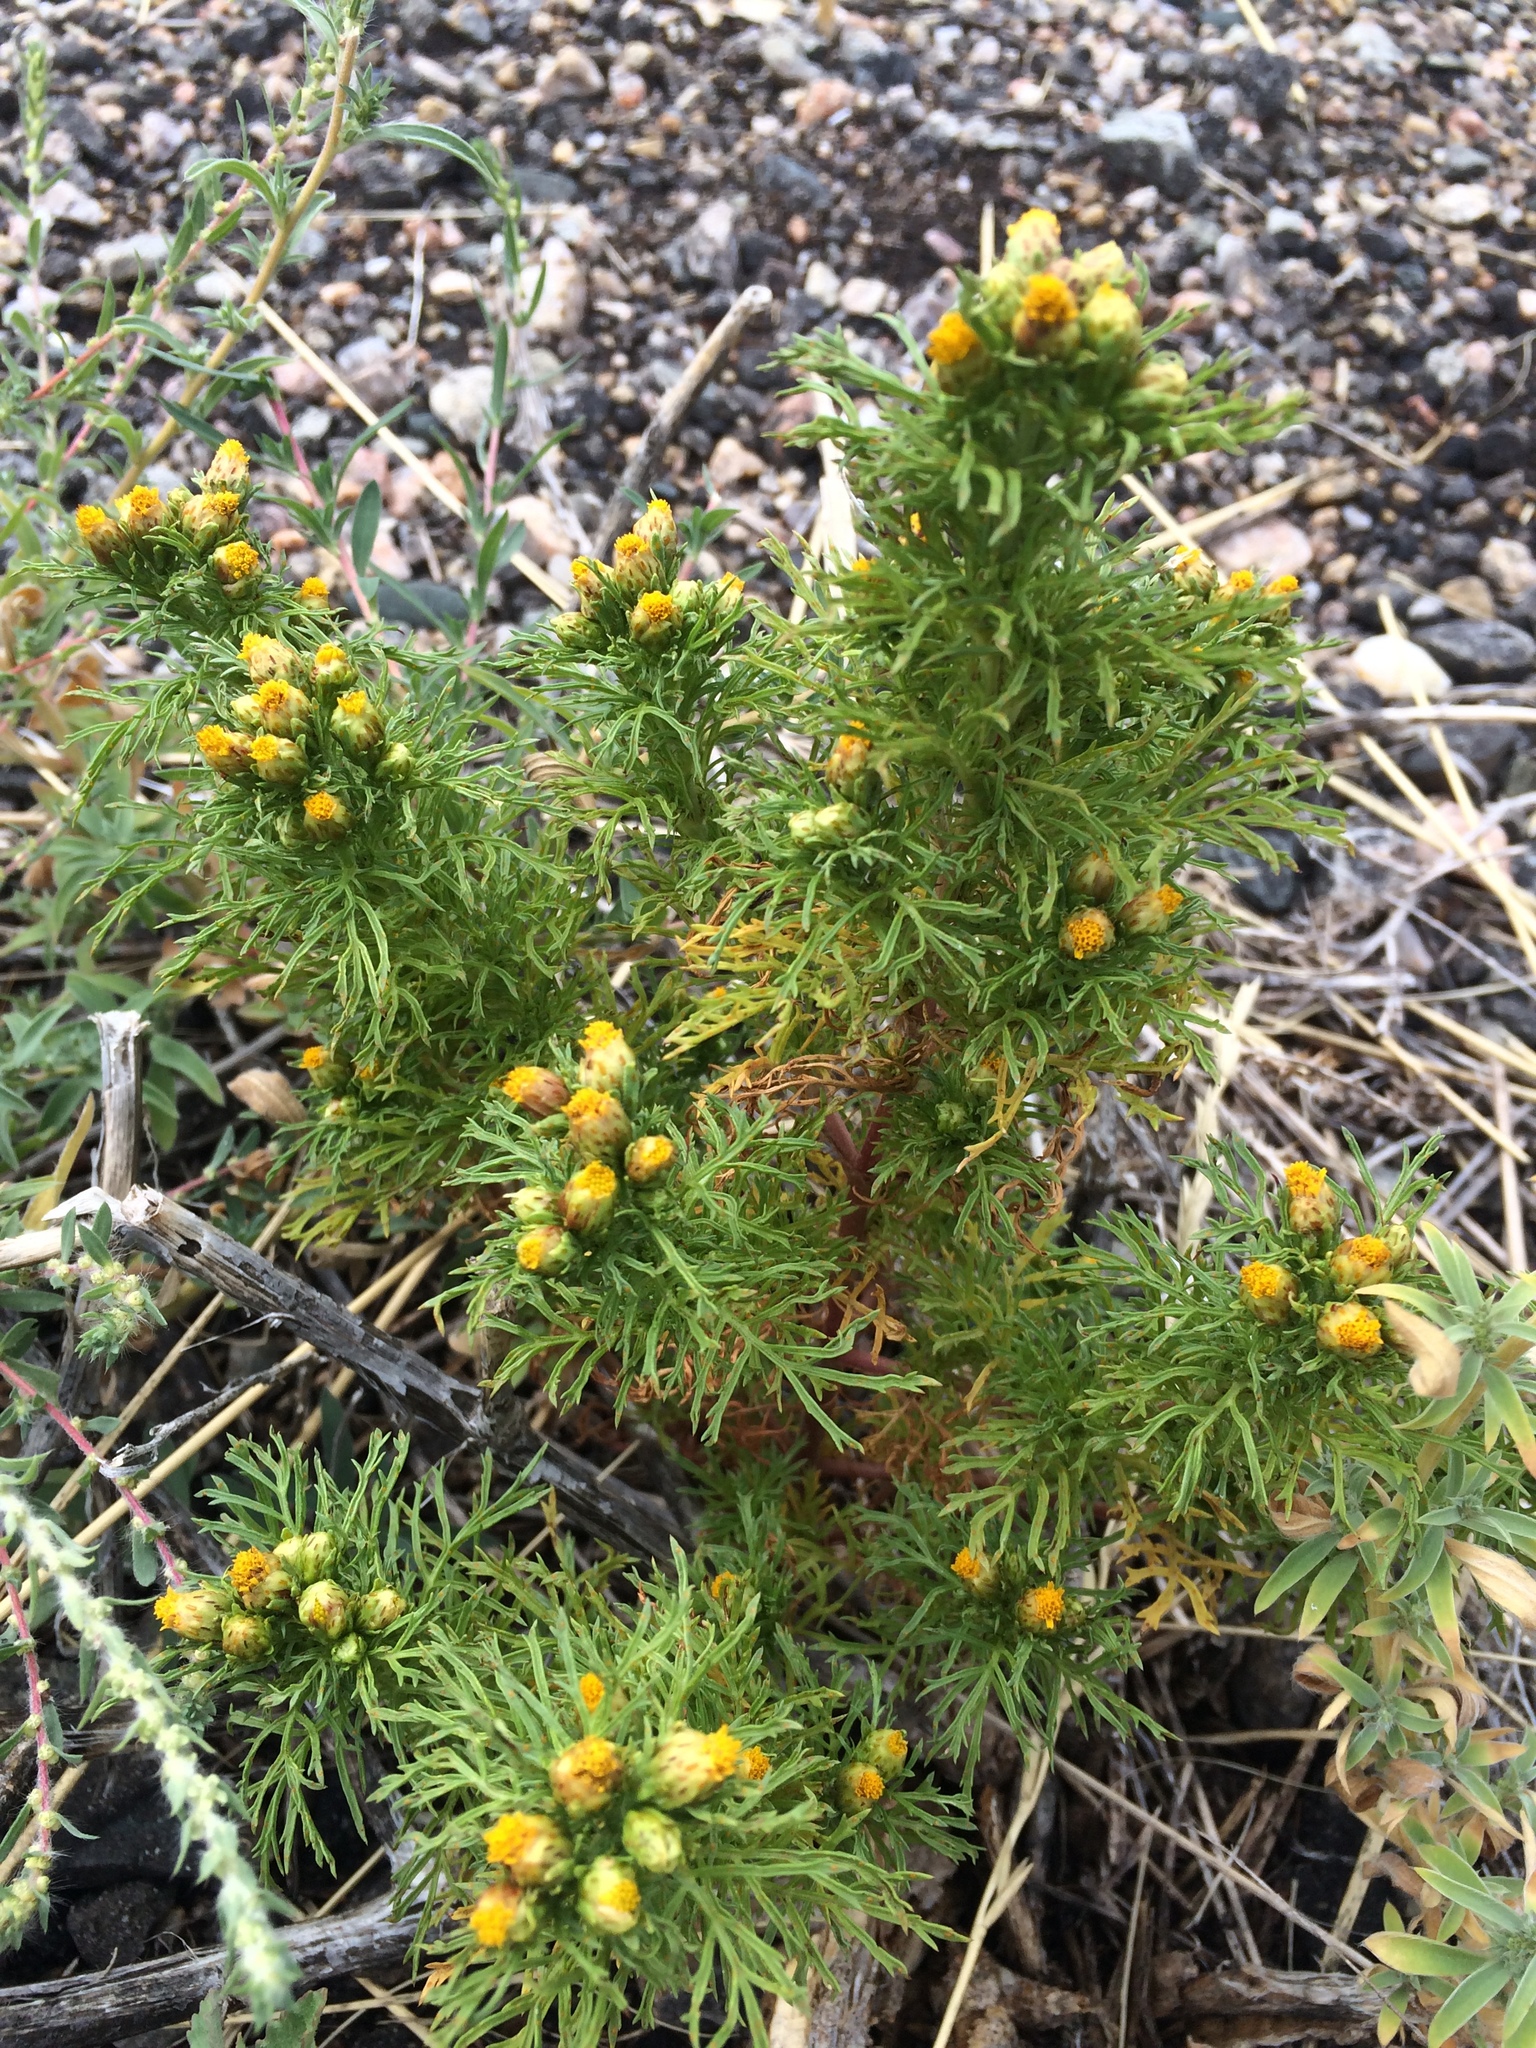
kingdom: Plantae
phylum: Tracheophyta
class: Magnoliopsida
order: Asterales
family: Asteraceae
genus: Dyssodia
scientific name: Dyssodia papposa
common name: Dogweed
